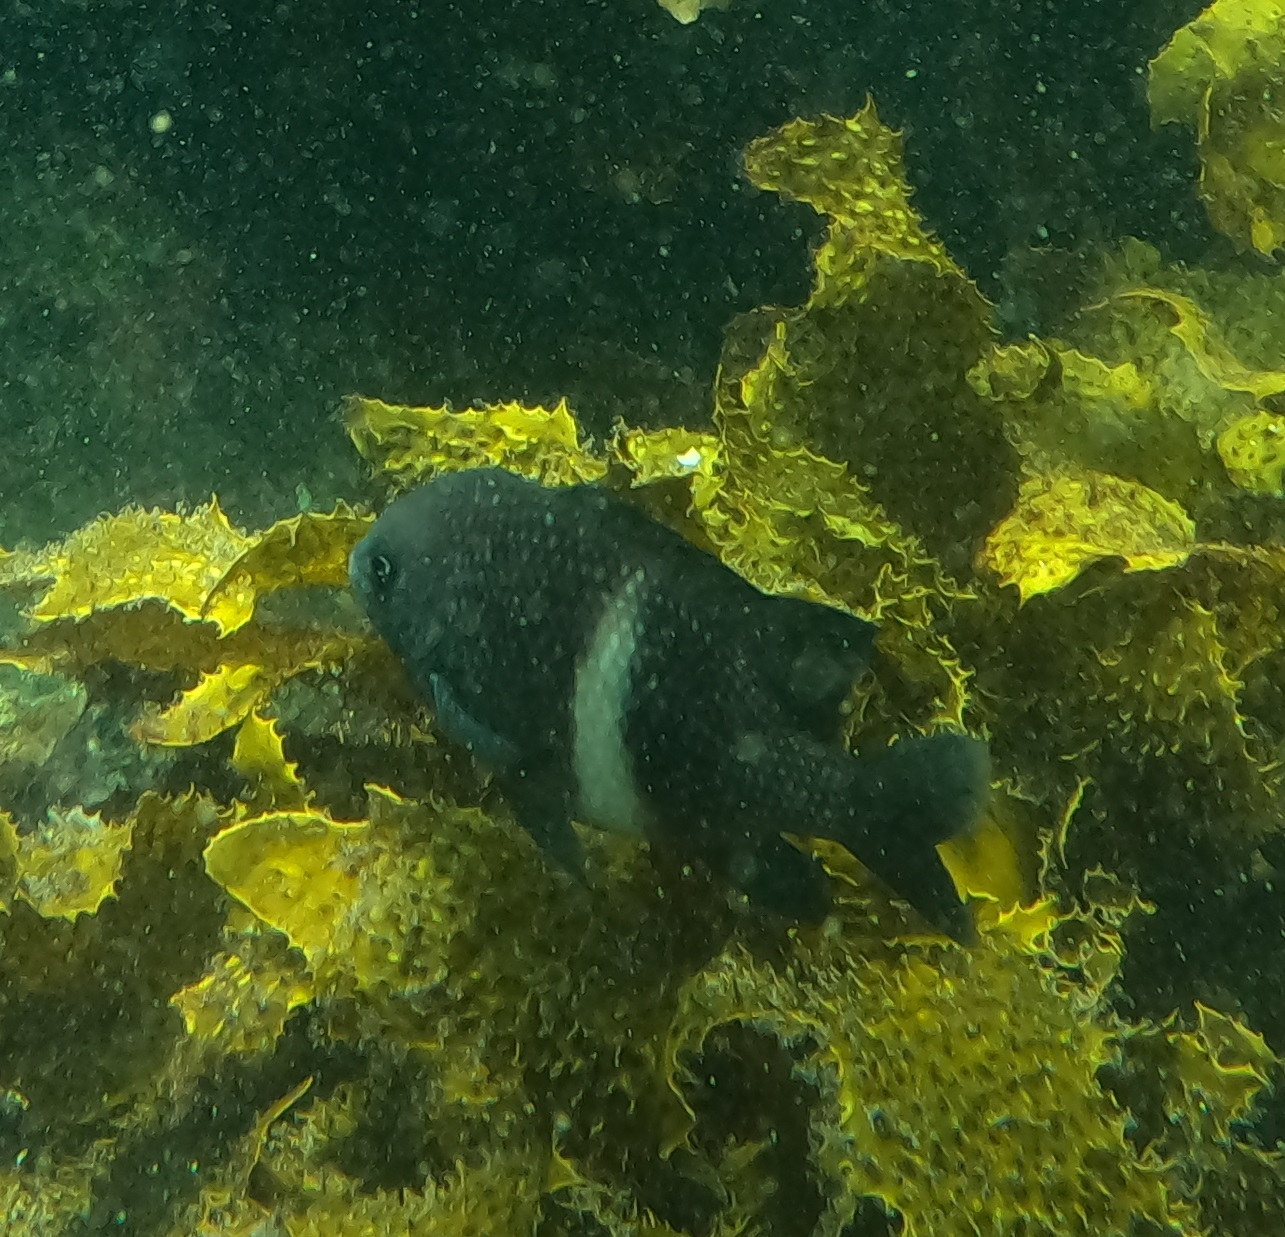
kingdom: Animalia
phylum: Chordata
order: Perciformes
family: Pomacentridae
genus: Parma
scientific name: Parma unifasciata
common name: Girdled parma
